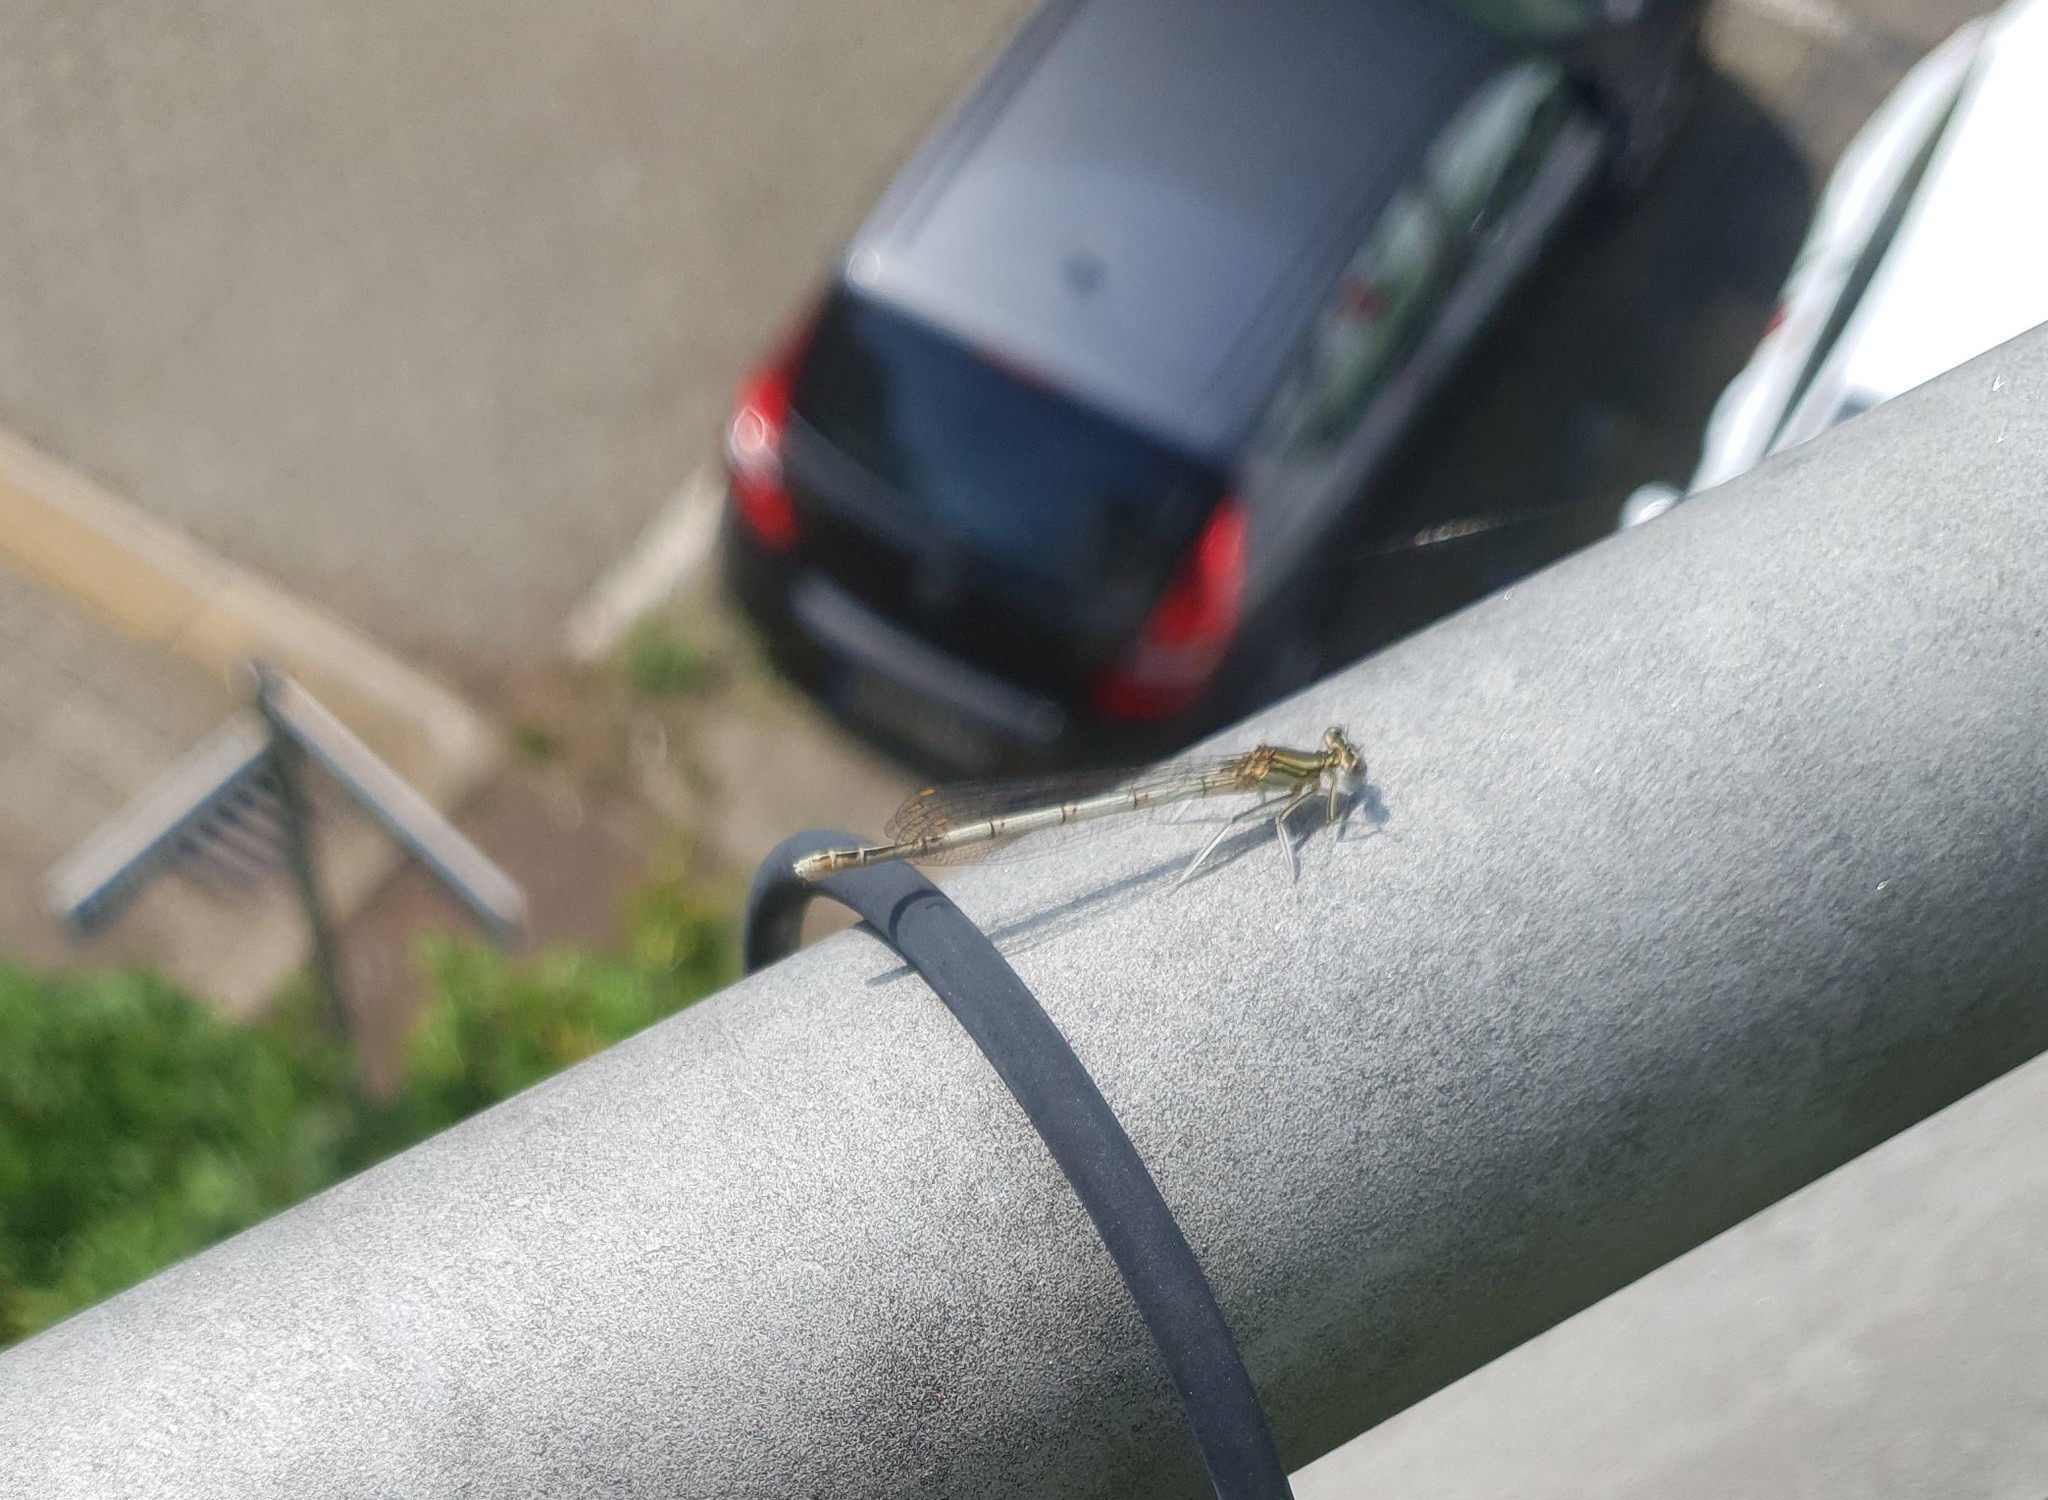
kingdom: Animalia
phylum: Arthropoda
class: Insecta
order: Odonata
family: Platycnemididae
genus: Platycnemis
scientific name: Platycnemis pennipes
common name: White-legged damselfly
